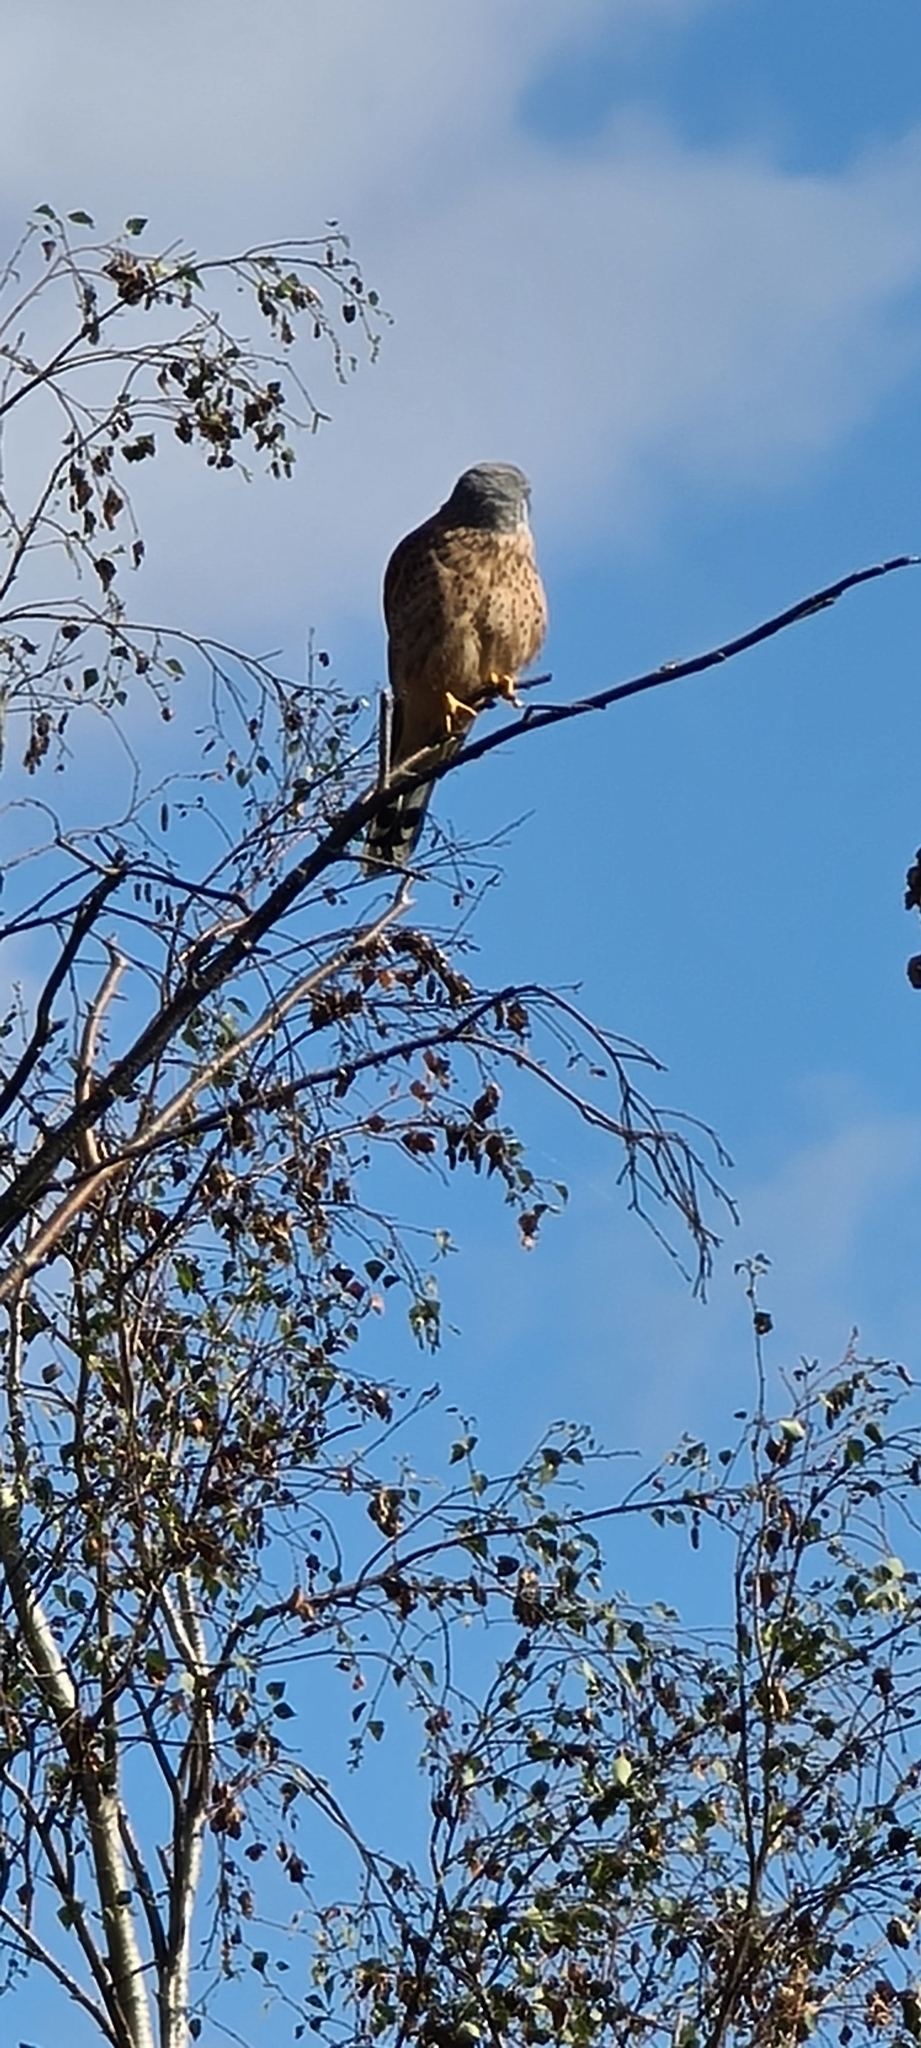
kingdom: Animalia
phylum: Chordata
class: Aves
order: Falconiformes
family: Falconidae
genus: Falco
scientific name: Falco tinnunculus
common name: Common kestrel
